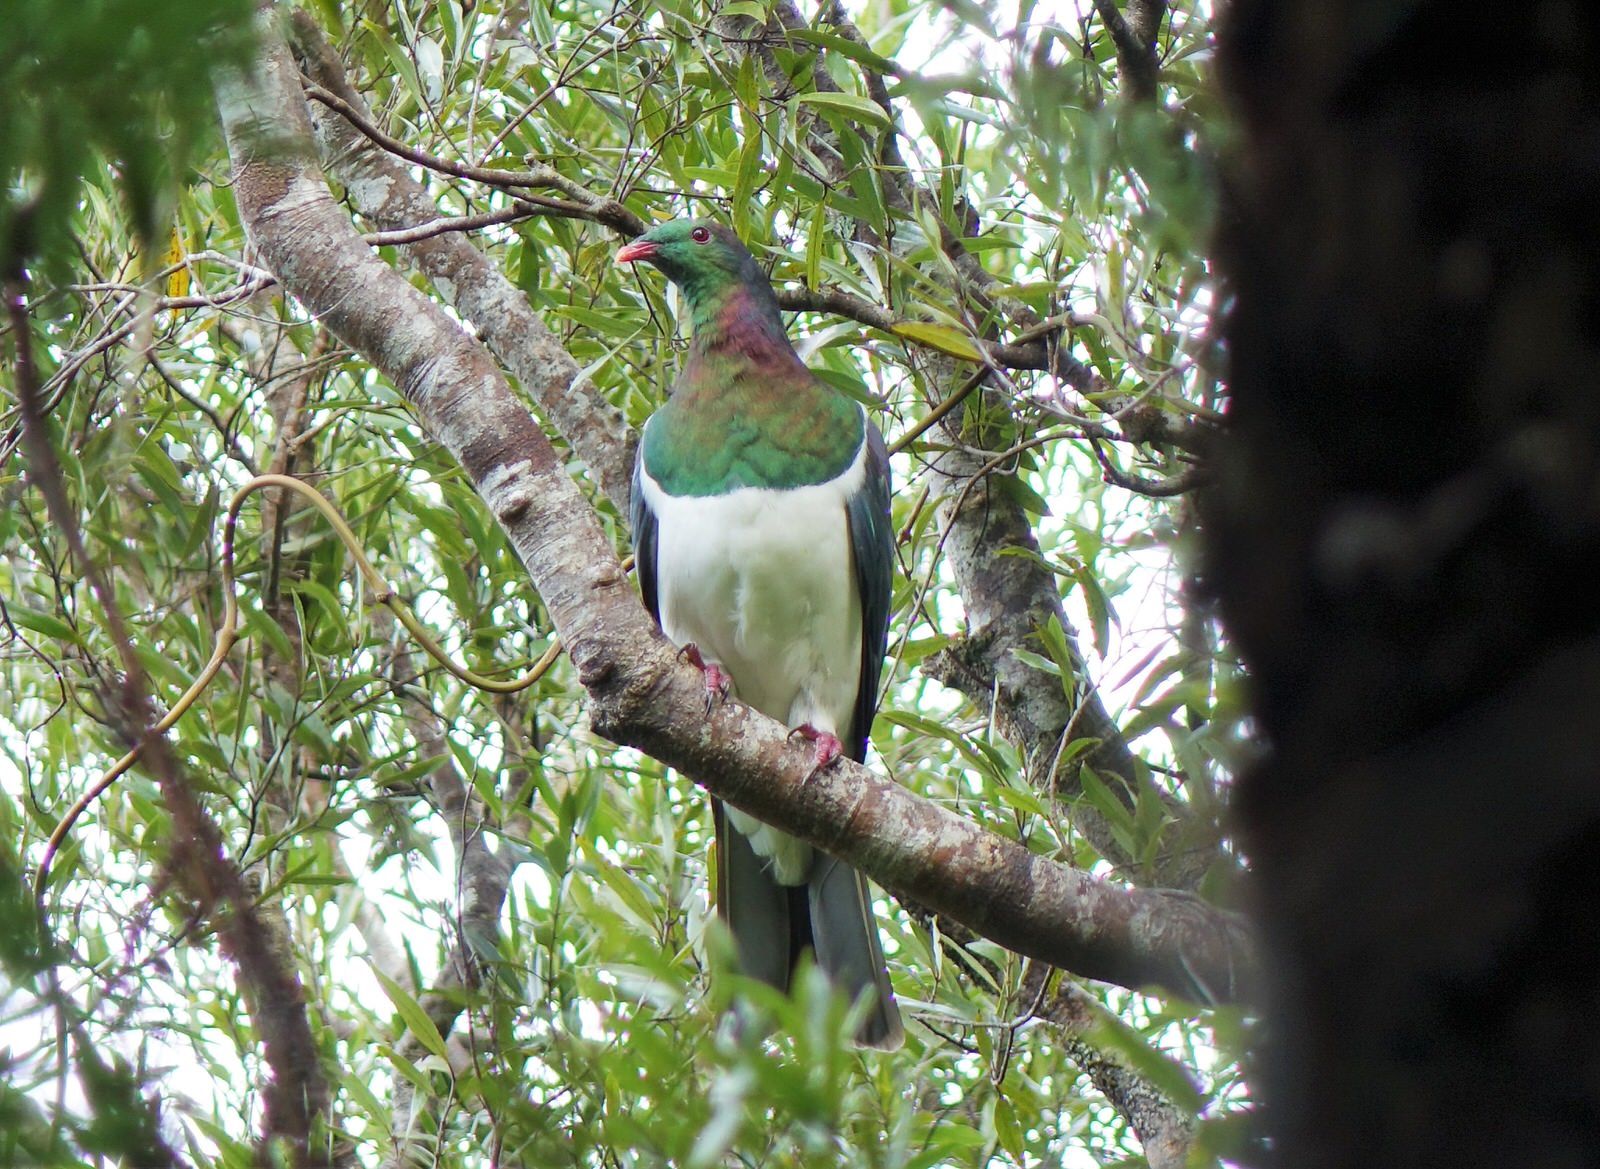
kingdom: Animalia
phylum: Chordata
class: Aves
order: Columbiformes
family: Columbidae
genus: Hemiphaga
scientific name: Hemiphaga novaeseelandiae
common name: New zealand pigeon
